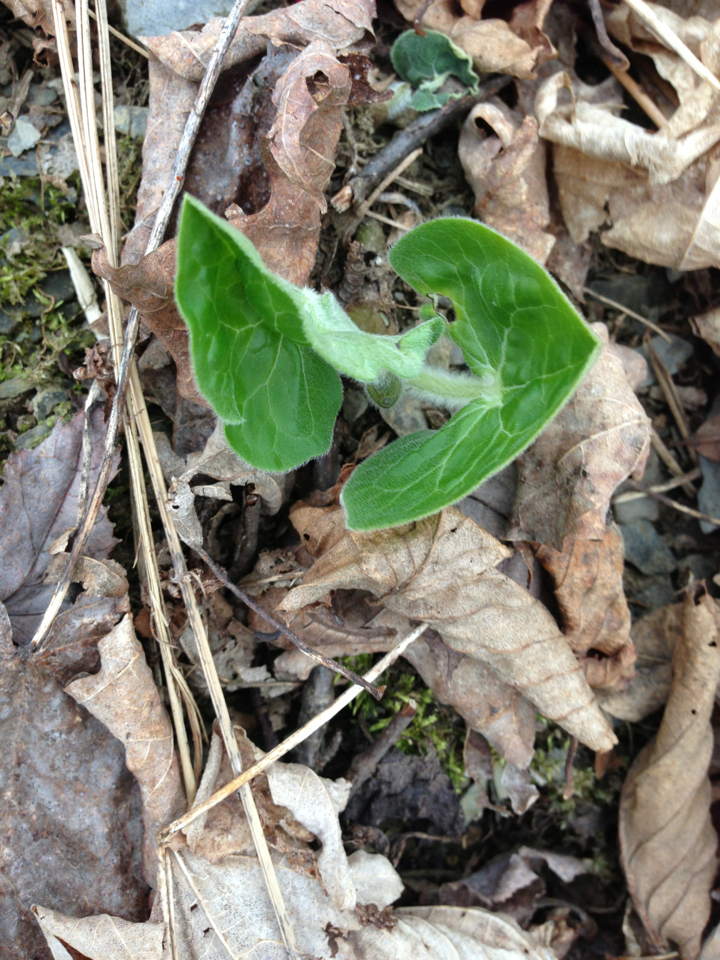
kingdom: Plantae
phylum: Tracheophyta
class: Magnoliopsida
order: Piperales
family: Aristolochiaceae
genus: Asarum
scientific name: Asarum canadense
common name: Wild ginger
